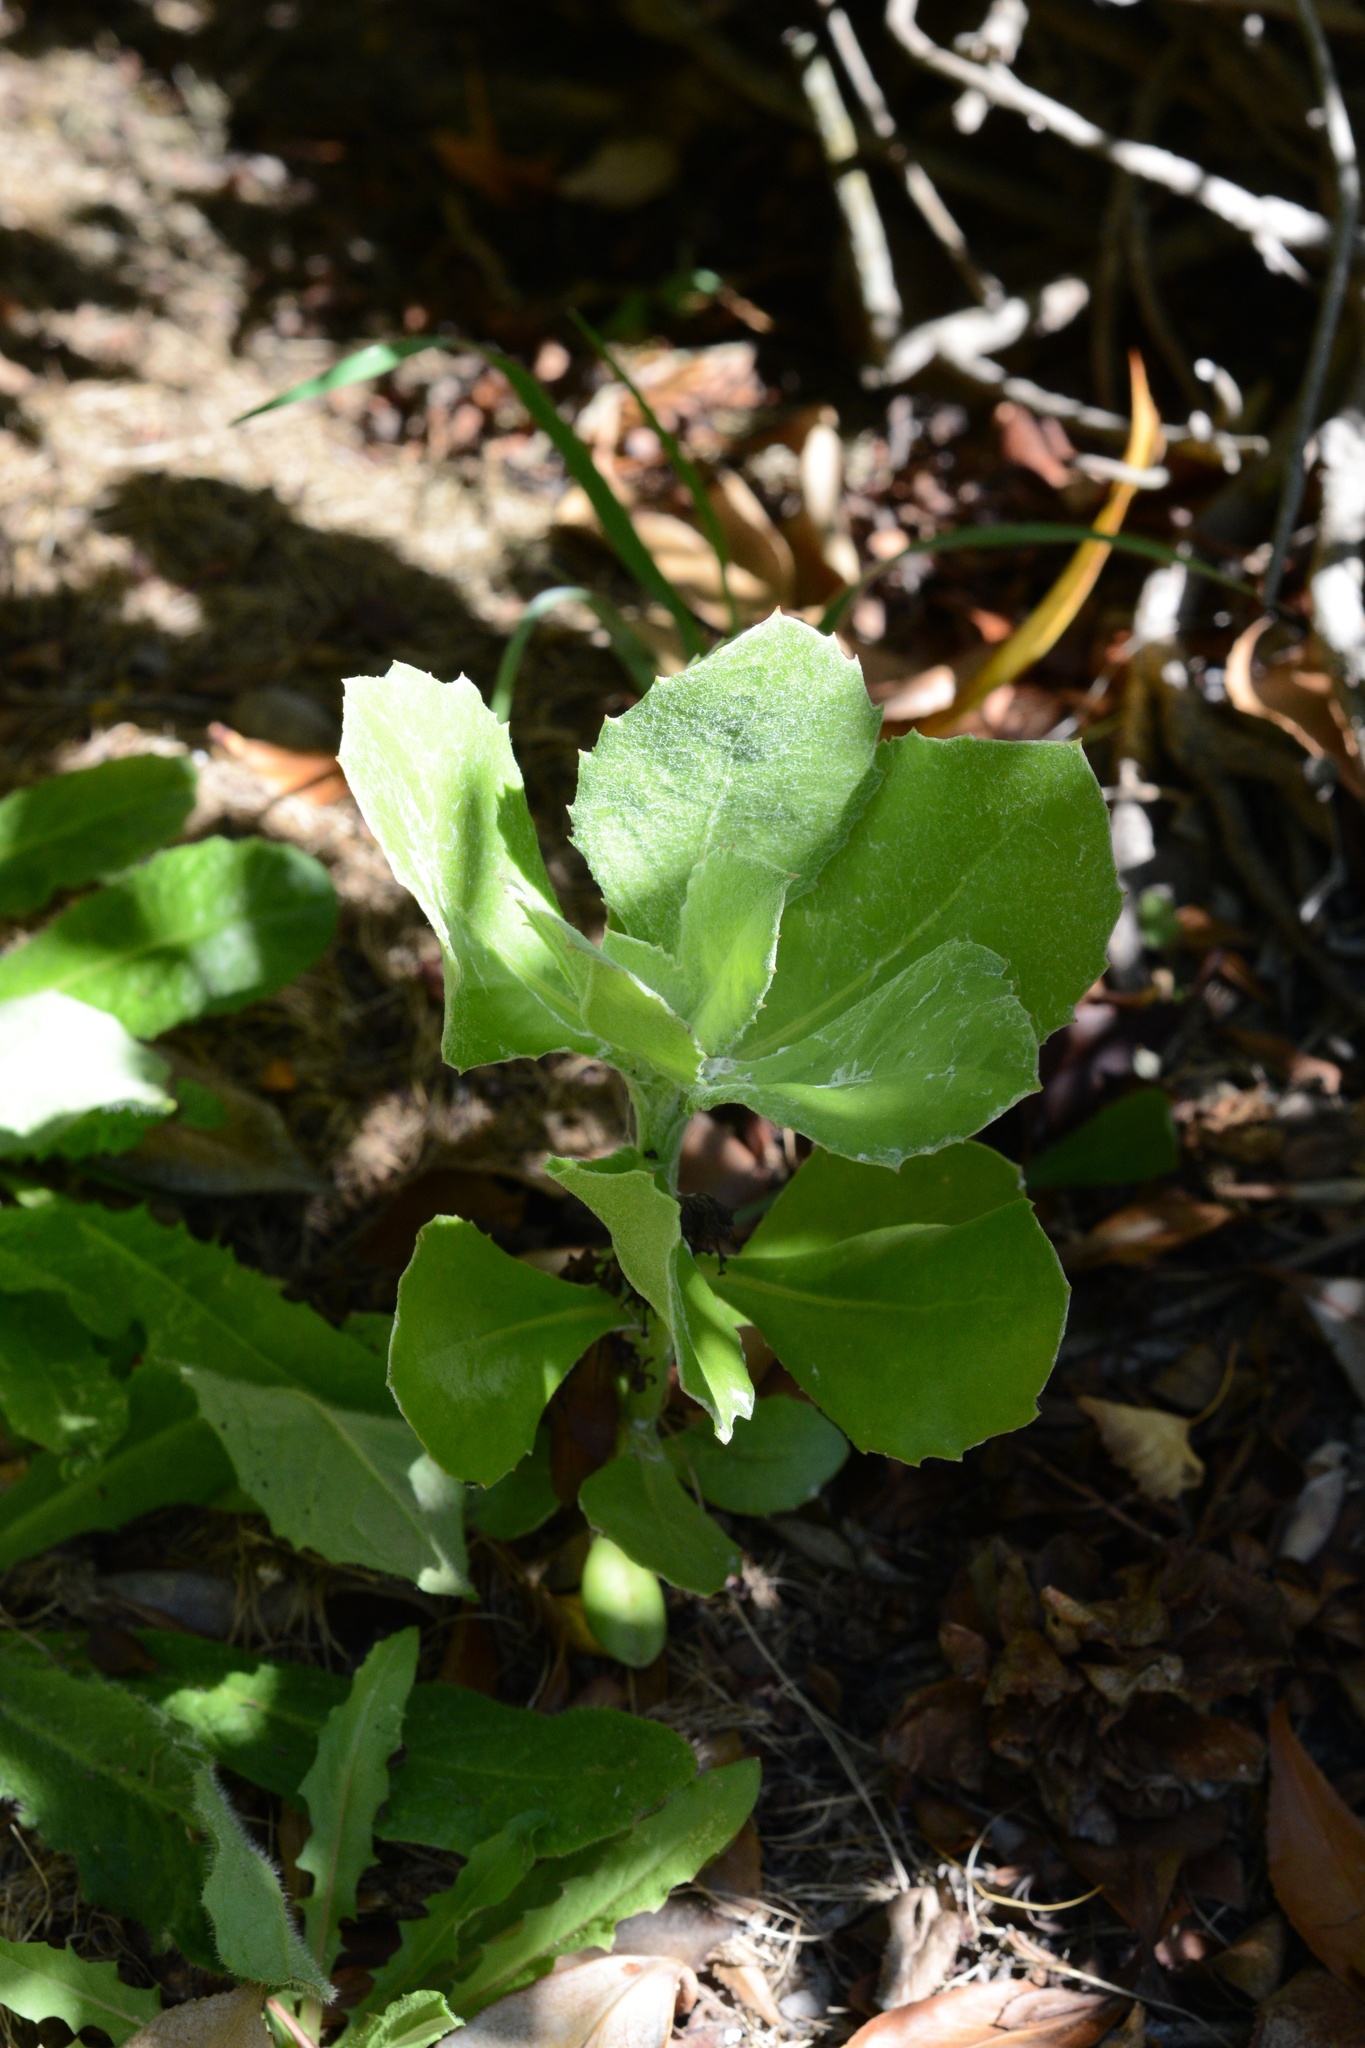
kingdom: Plantae
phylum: Tracheophyta
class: Magnoliopsida
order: Asterales
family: Asteraceae
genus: Osteospermum
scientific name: Osteospermum moniliferum
